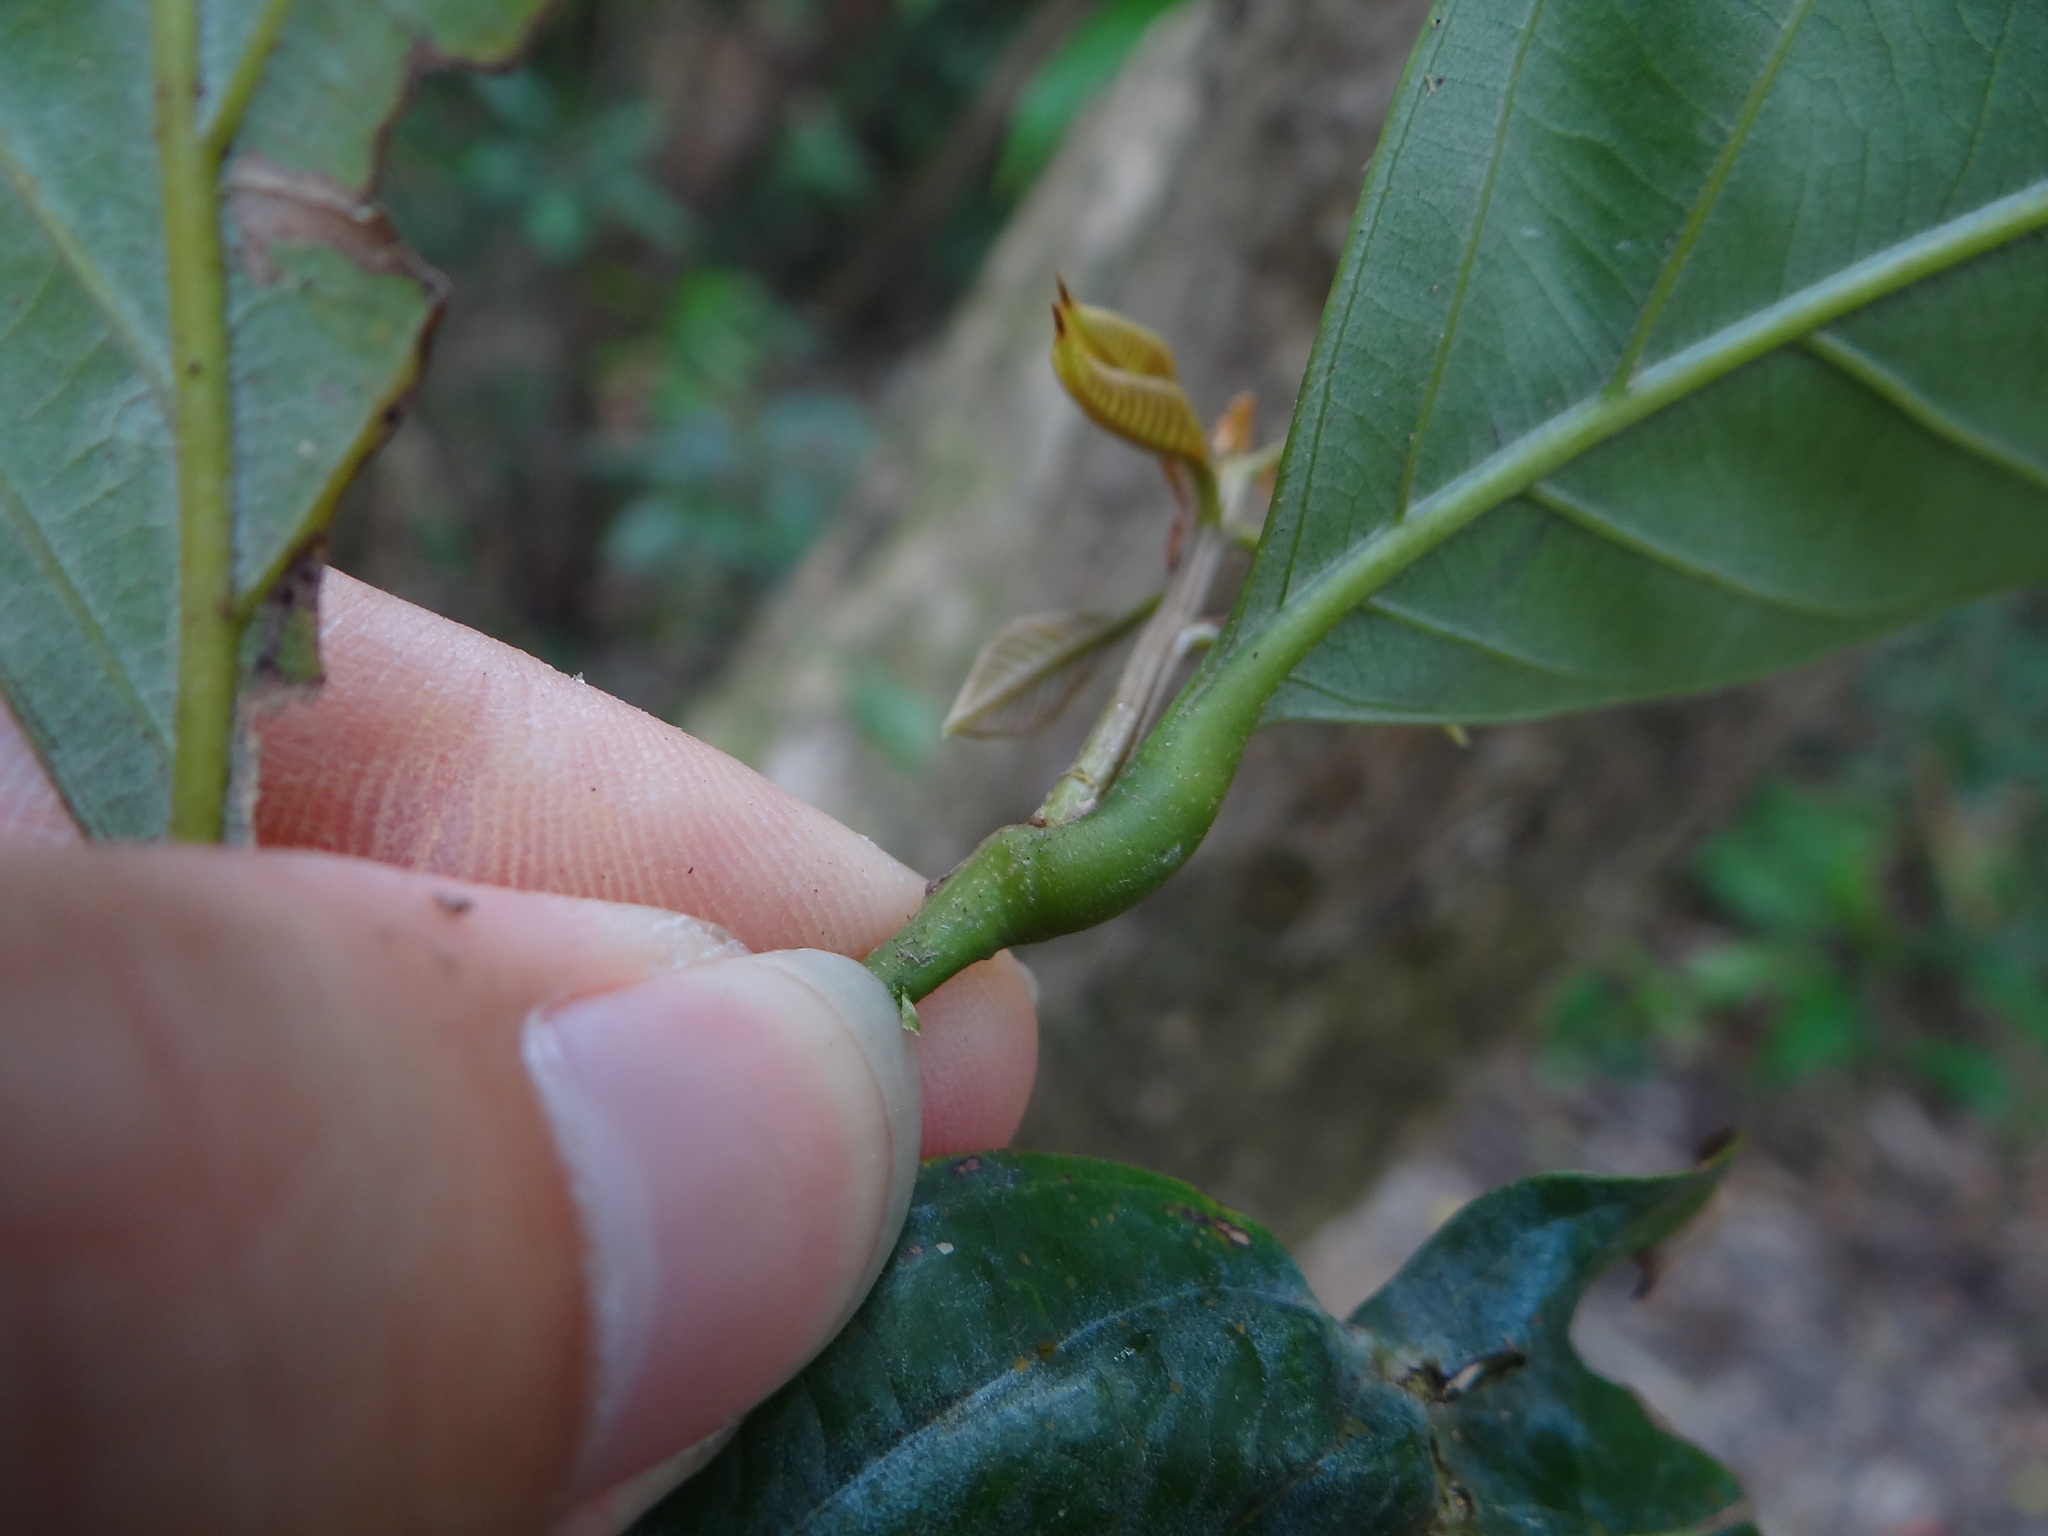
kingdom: Plantae
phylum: Tracheophyta
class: Magnoliopsida
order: Fagales
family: Fagaceae
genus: Lithocarpus
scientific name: Lithocarpus amygdalifolius
